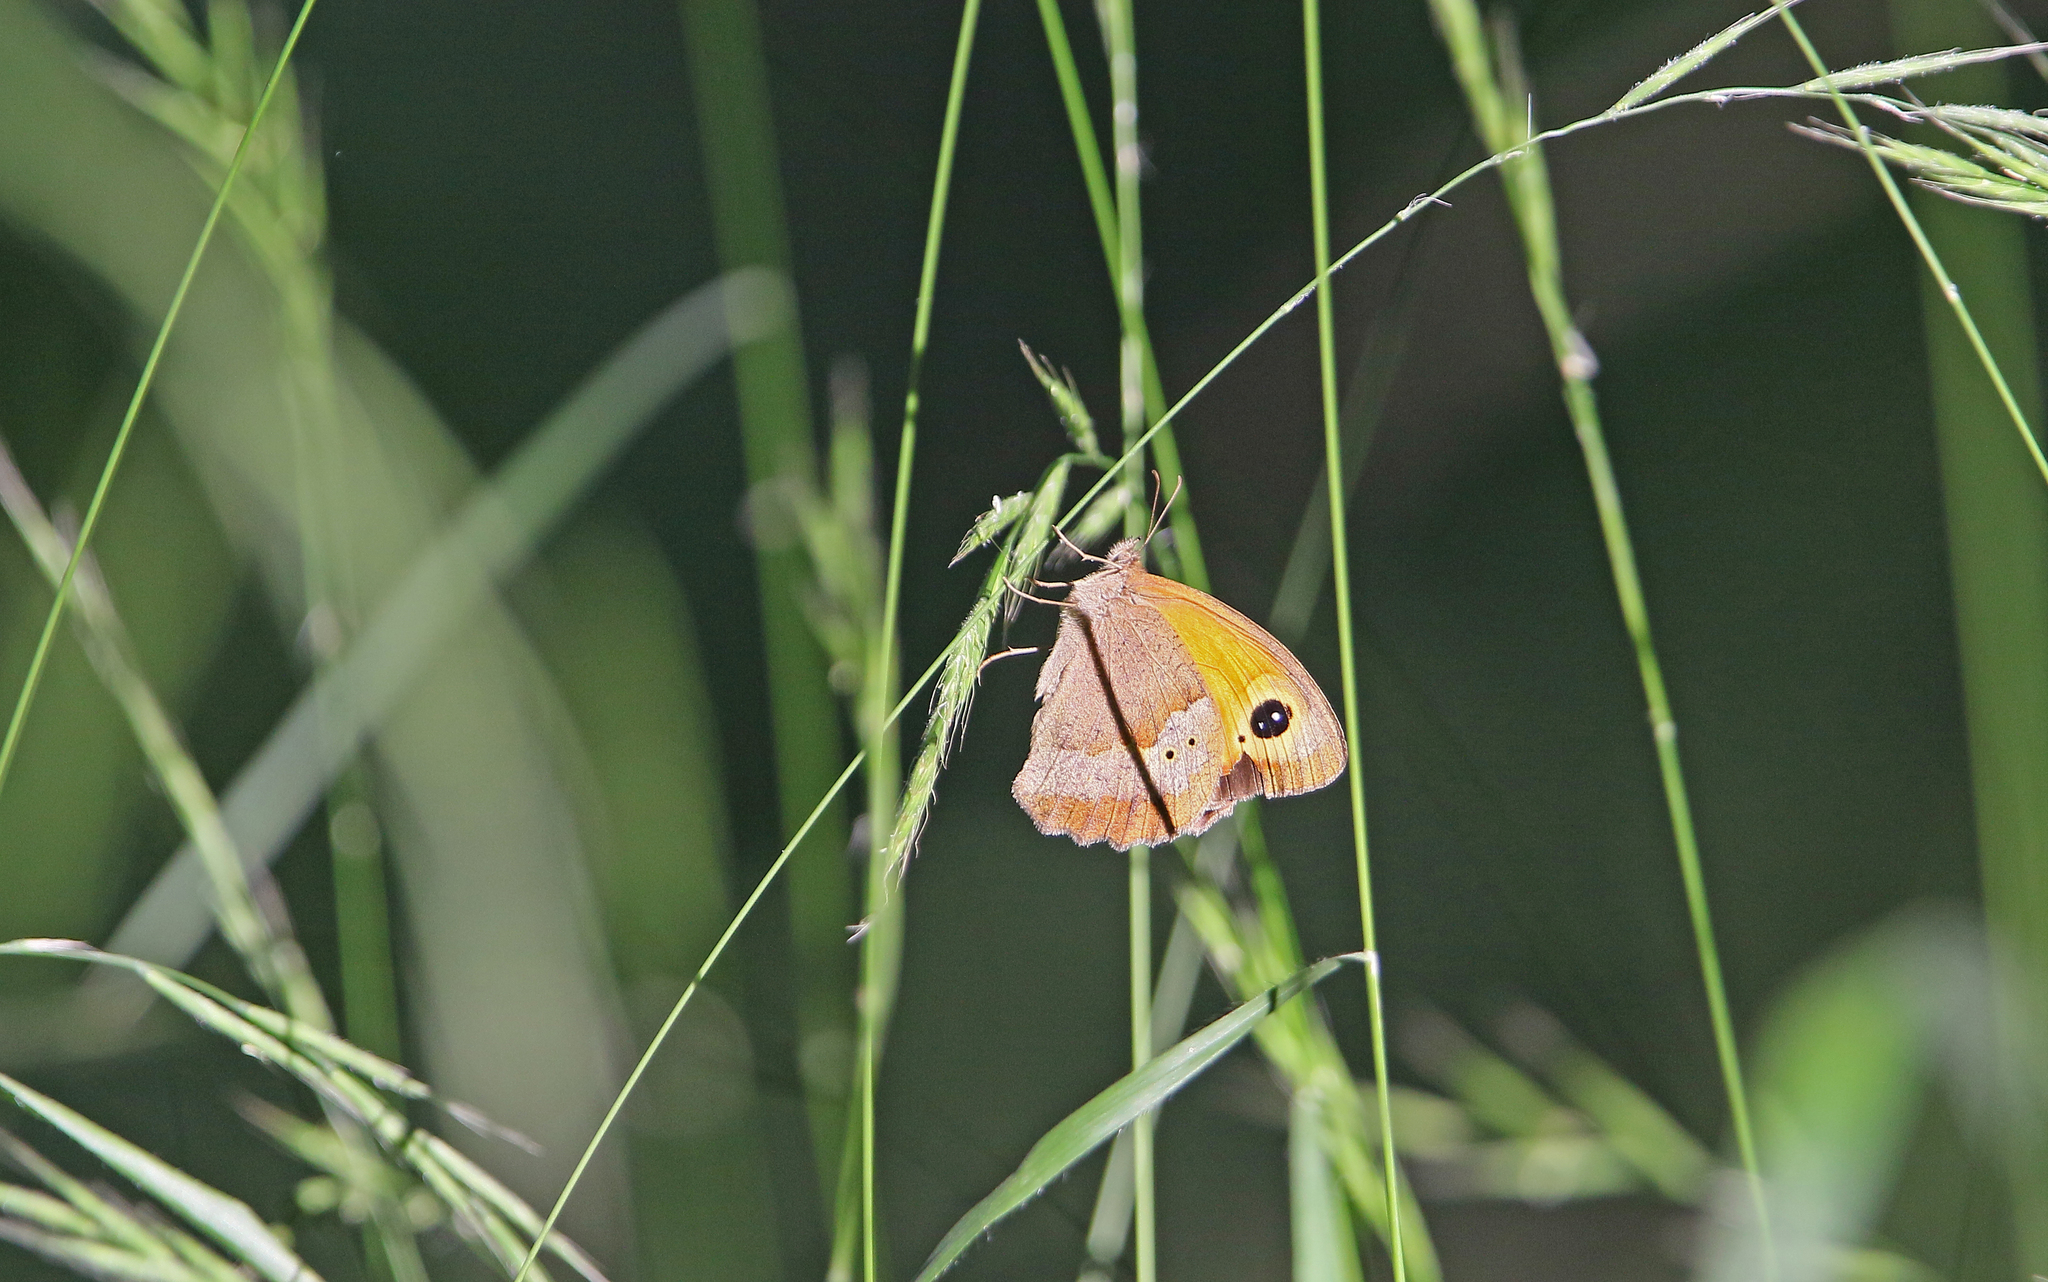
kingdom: Animalia
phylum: Arthropoda
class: Insecta
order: Lepidoptera
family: Nymphalidae
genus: Maniola
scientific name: Maniola jurtina
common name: Meadow brown
